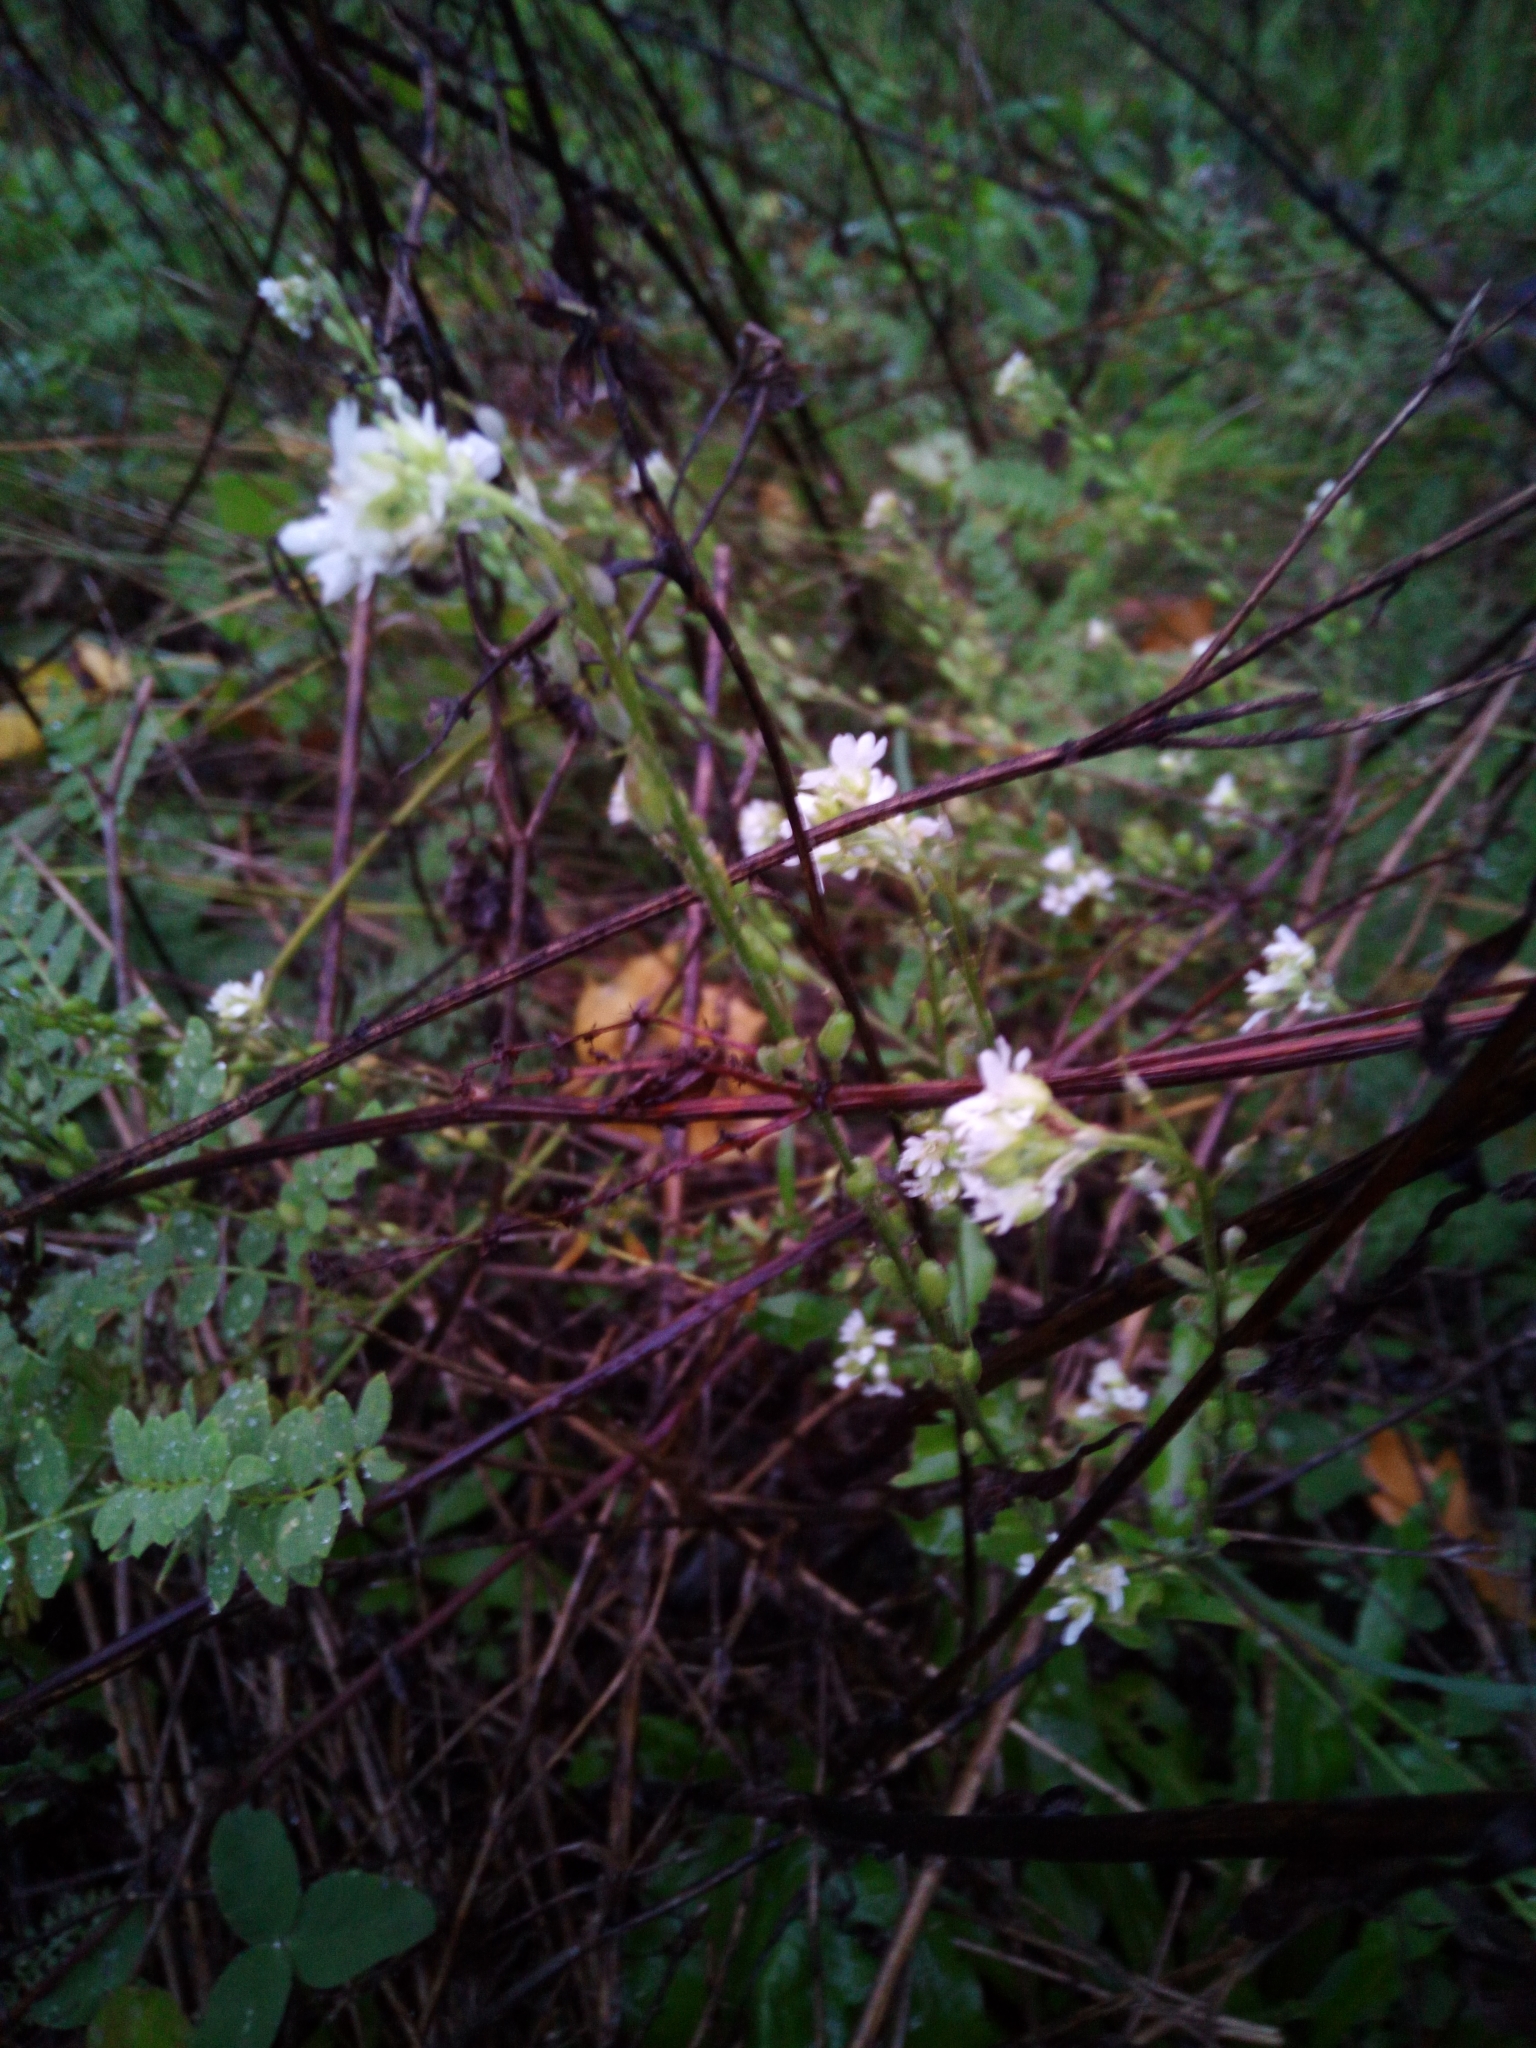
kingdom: Plantae
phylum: Tracheophyta
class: Magnoliopsida
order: Brassicales
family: Brassicaceae
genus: Berteroa
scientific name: Berteroa incana
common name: Hoary alison
